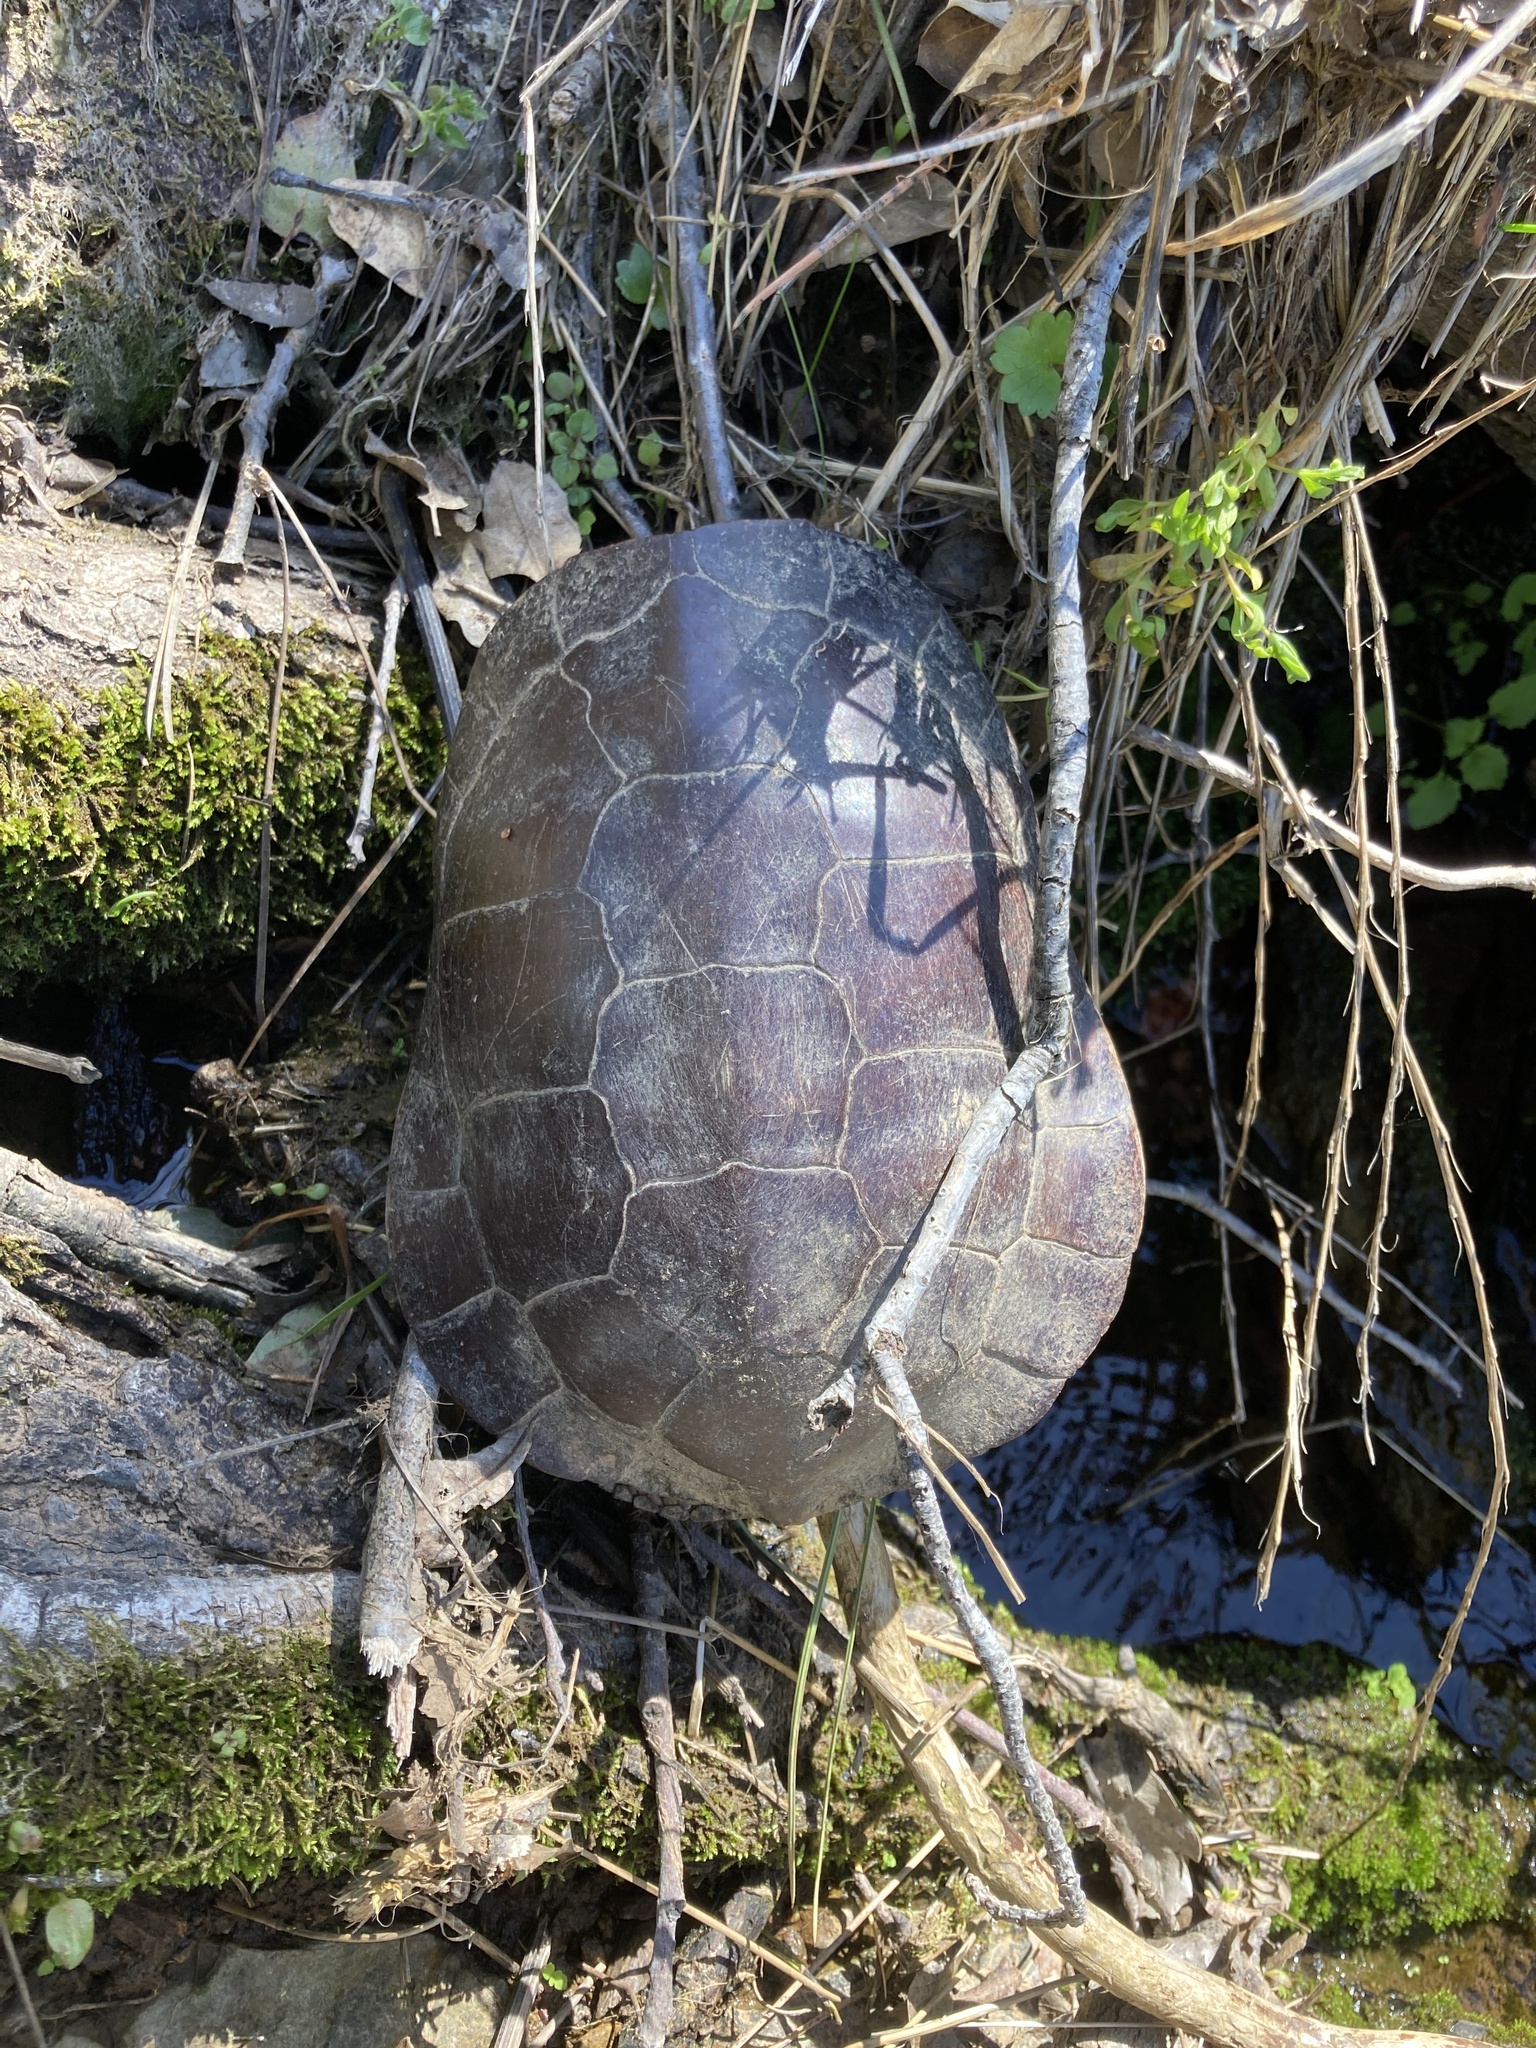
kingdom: Animalia
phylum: Chordata
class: Testudines
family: Emydidae
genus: Actinemys
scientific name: Actinemys marmorata
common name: Western pond turtle
